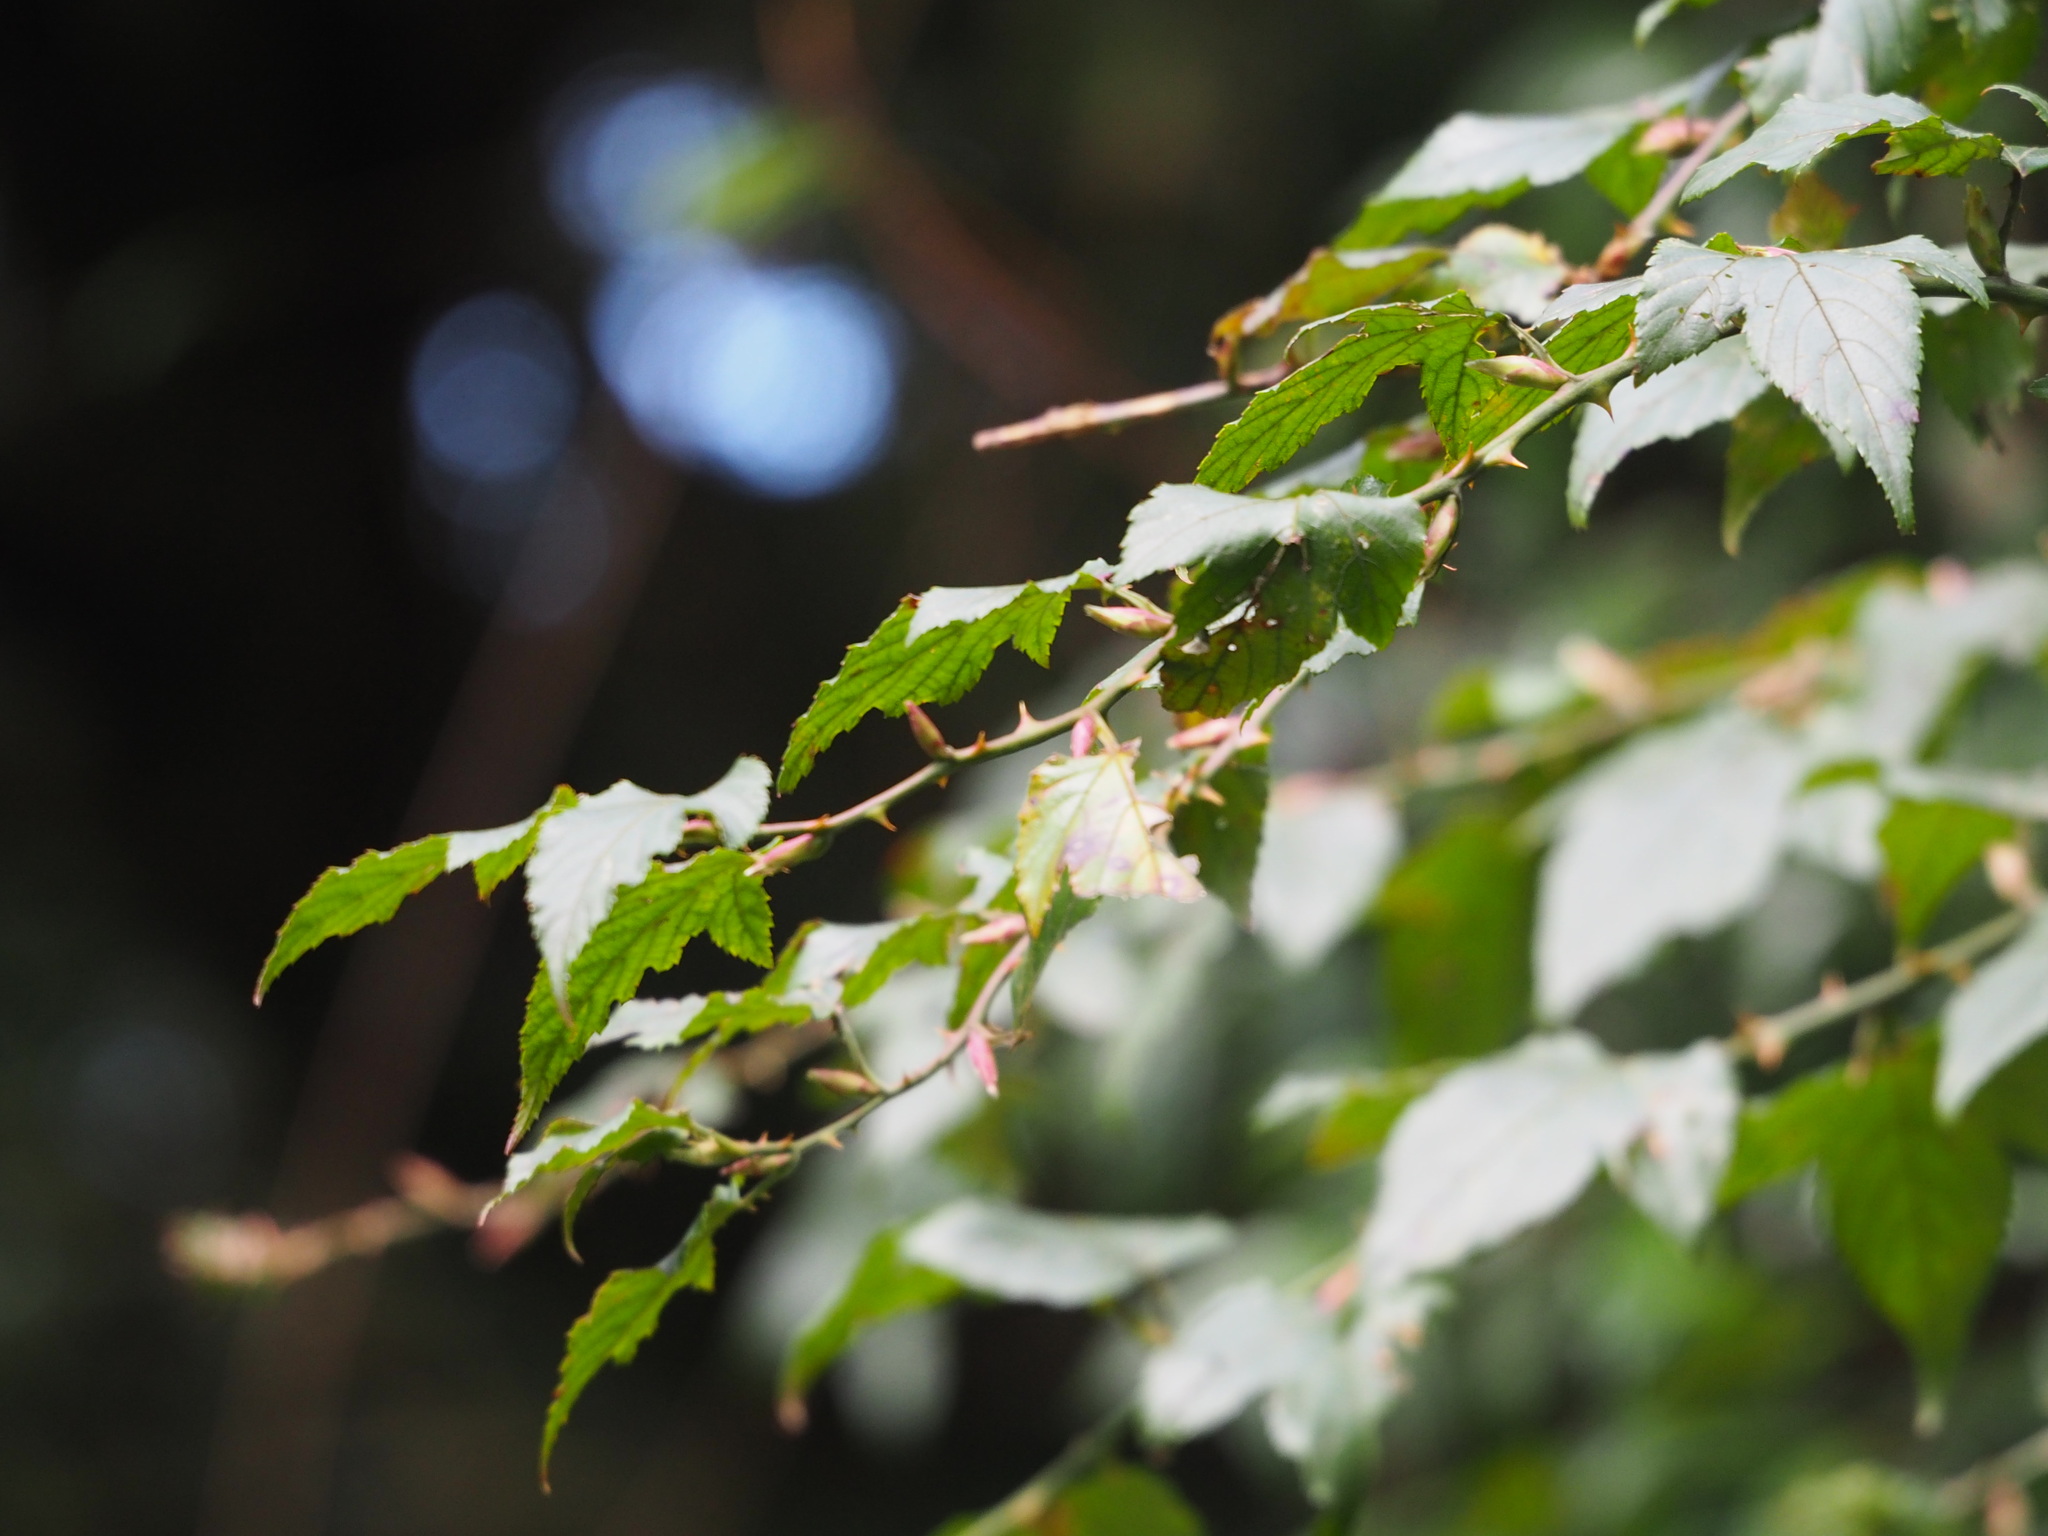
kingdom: Plantae
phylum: Tracheophyta
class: Magnoliopsida
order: Rosales
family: Rosaceae
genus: Rubus
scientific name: Rubus corchorifolius
